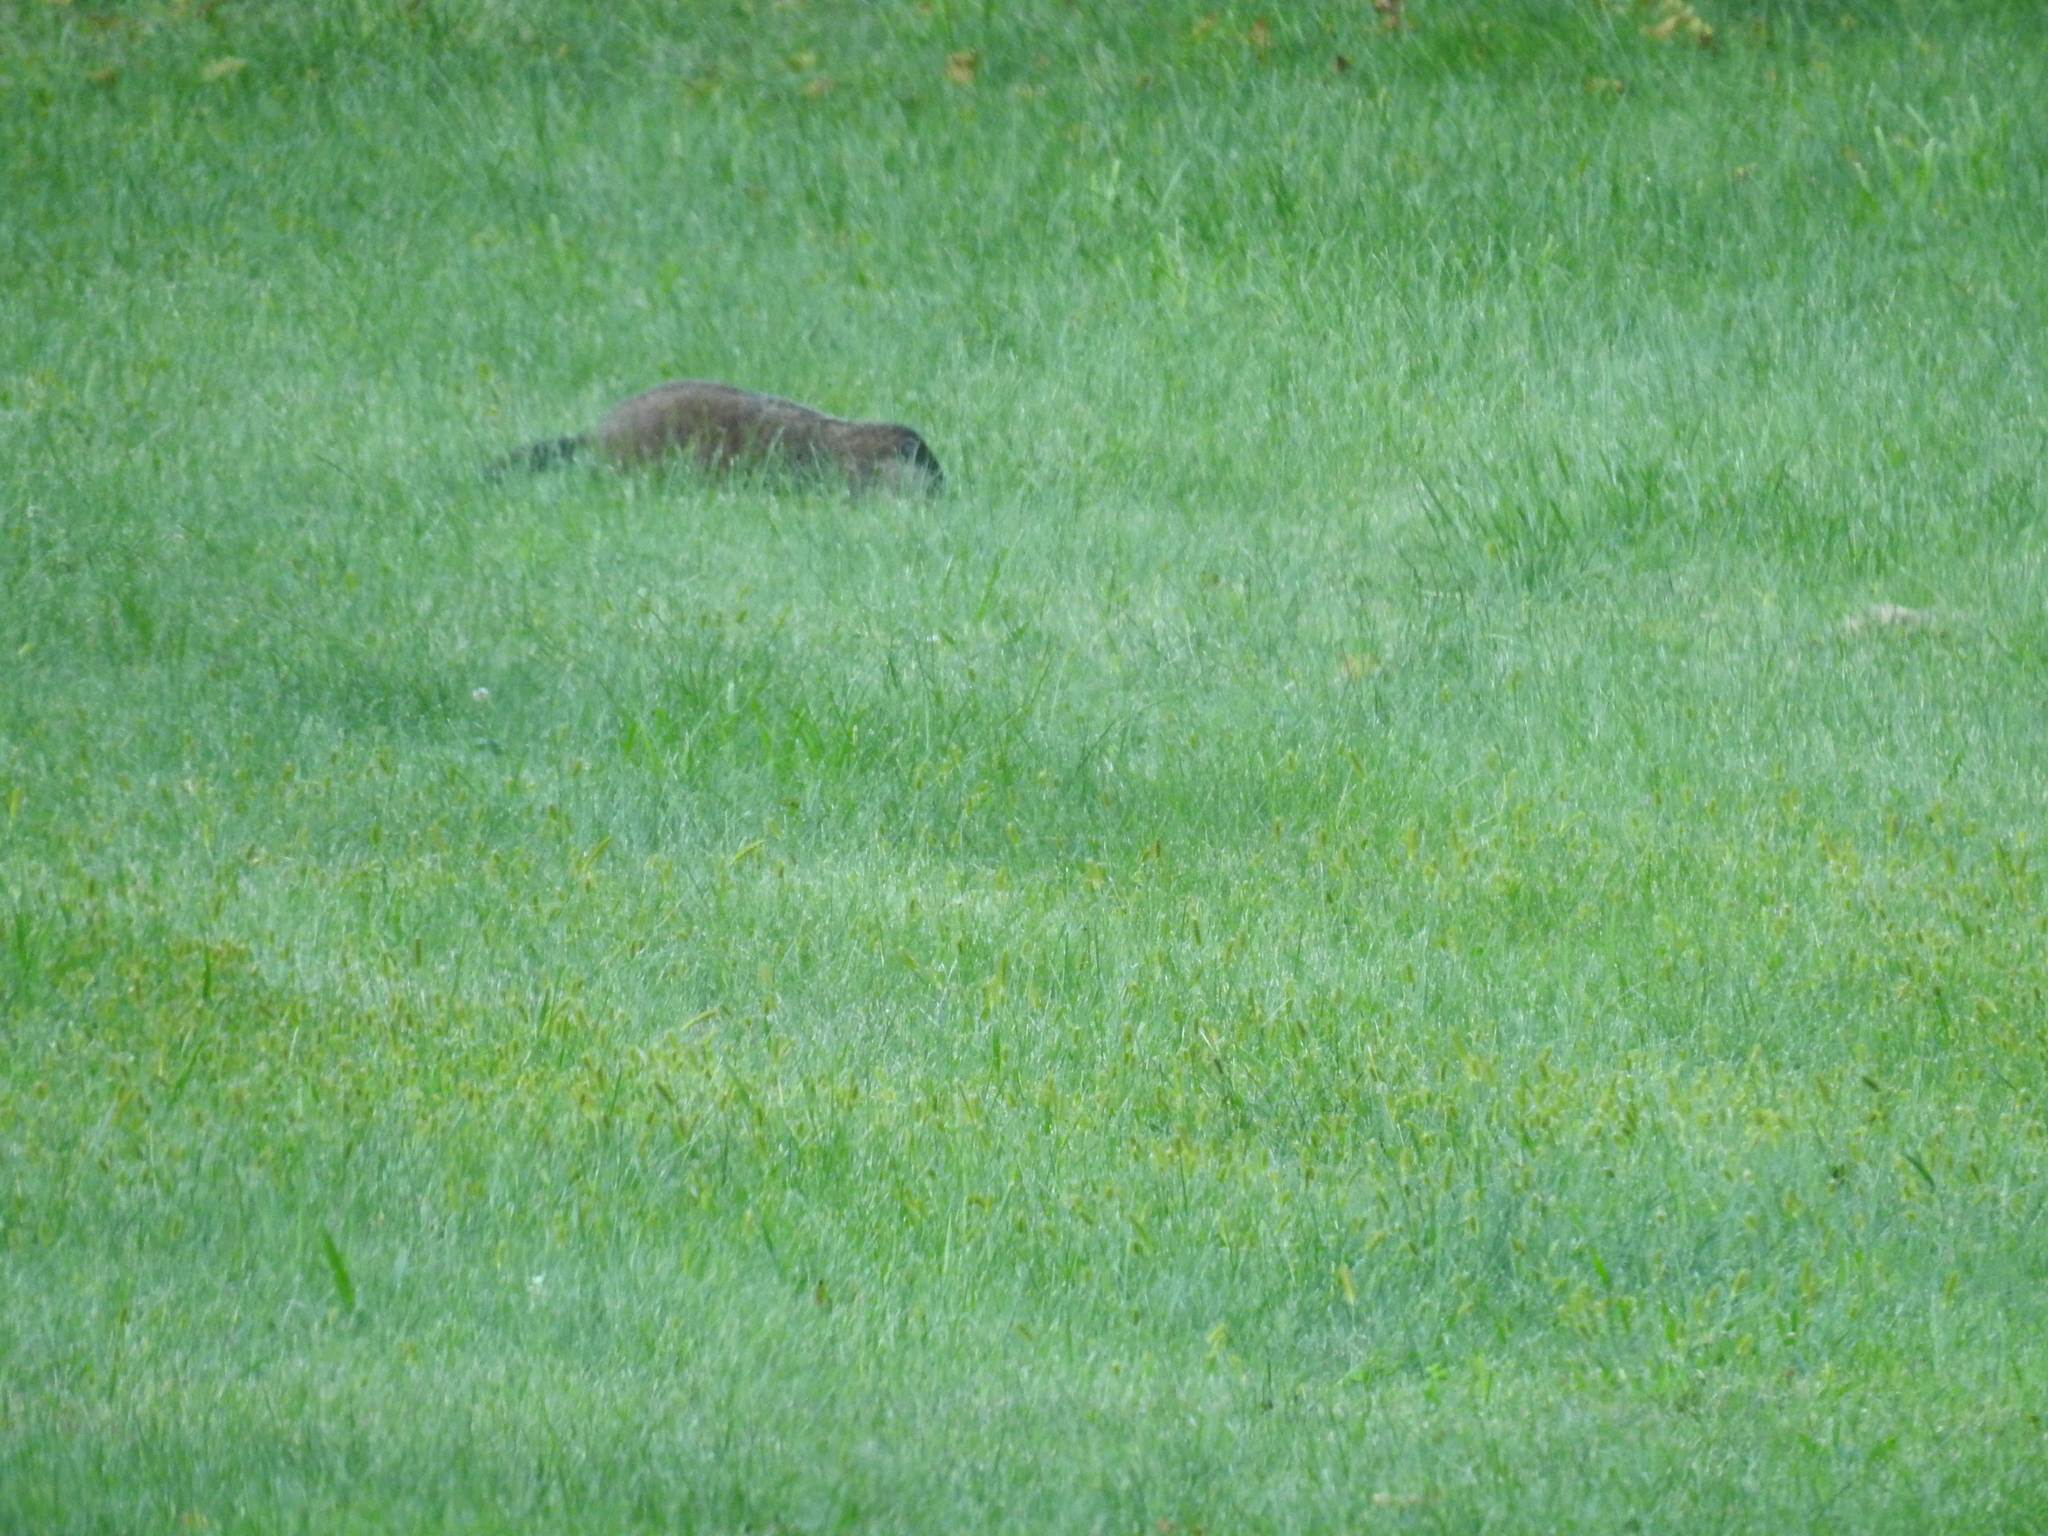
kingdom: Animalia
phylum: Chordata
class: Mammalia
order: Rodentia
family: Sciuridae
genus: Marmota
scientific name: Marmota monax
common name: Groundhog
